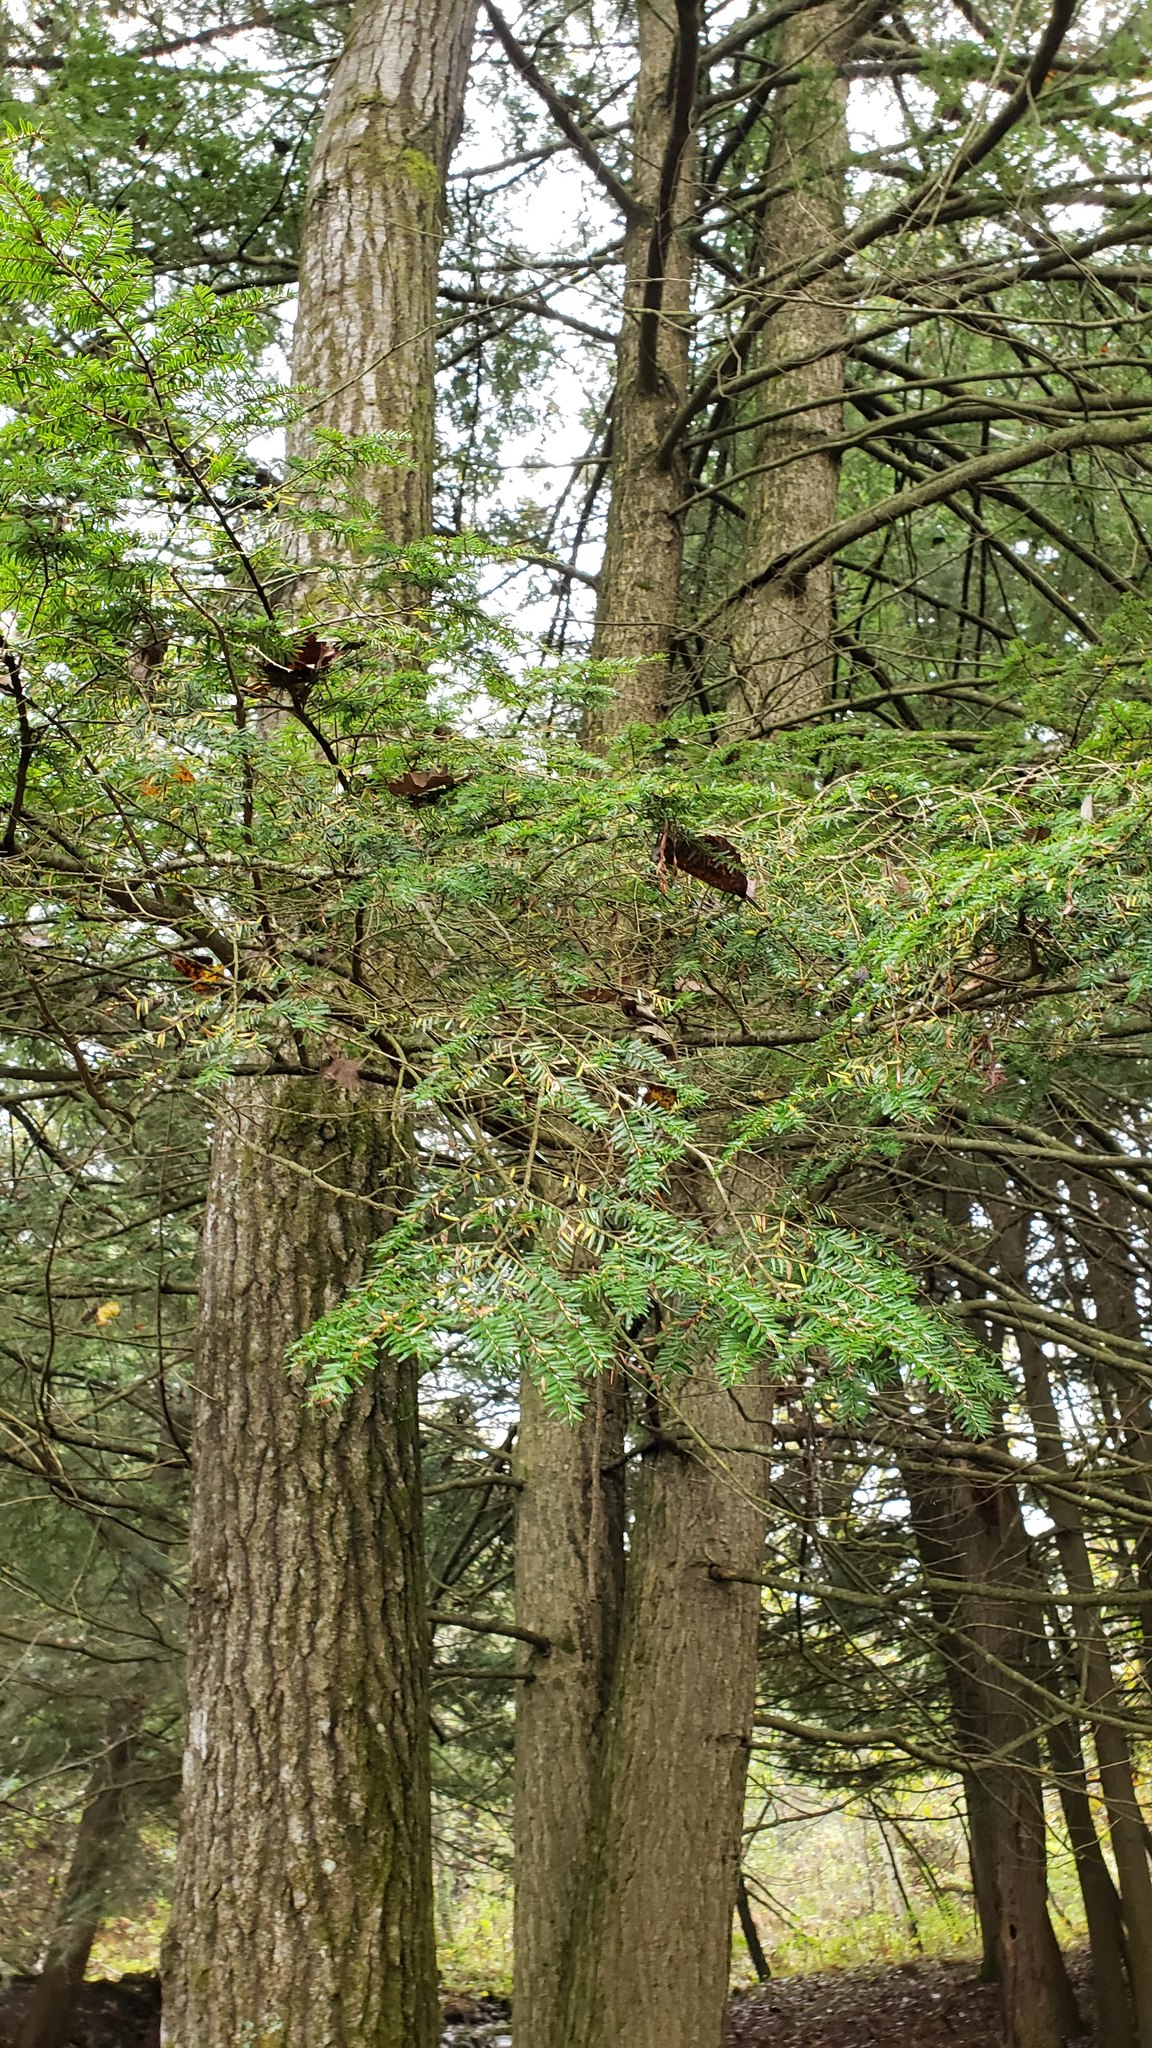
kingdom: Plantae
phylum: Tracheophyta
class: Pinopsida
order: Pinales
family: Pinaceae
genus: Tsuga
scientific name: Tsuga canadensis
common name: Eastern hemlock
